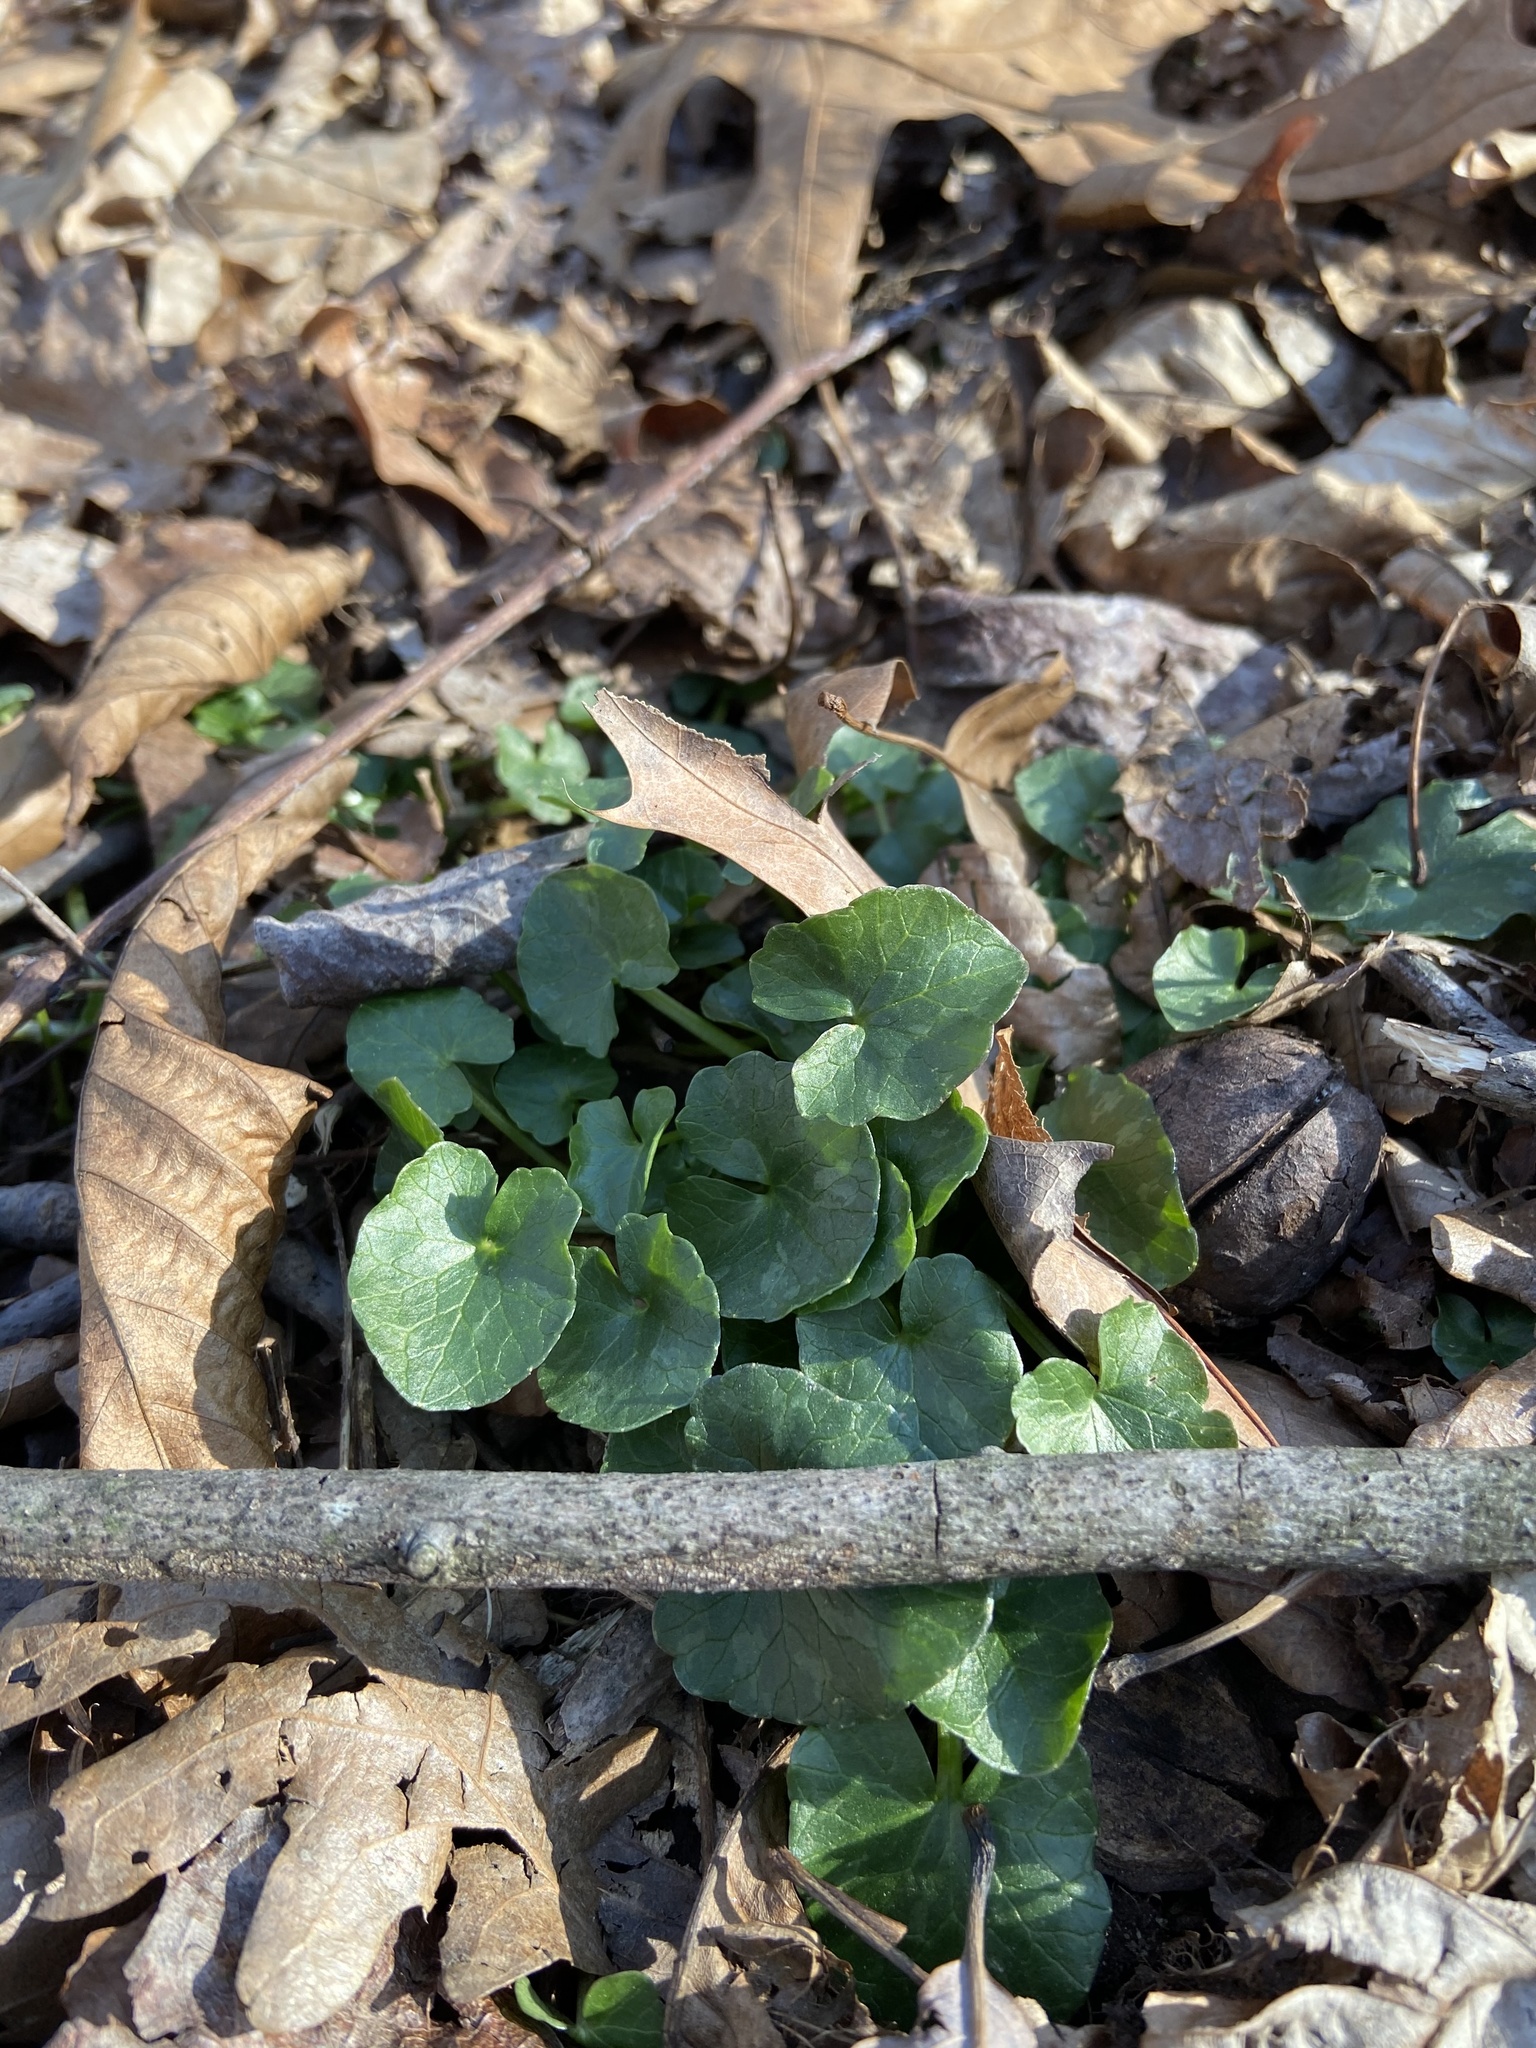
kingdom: Plantae
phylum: Tracheophyta
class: Magnoliopsida
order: Ranunculales
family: Ranunculaceae
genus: Ficaria
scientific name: Ficaria verna
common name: Lesser celandine
